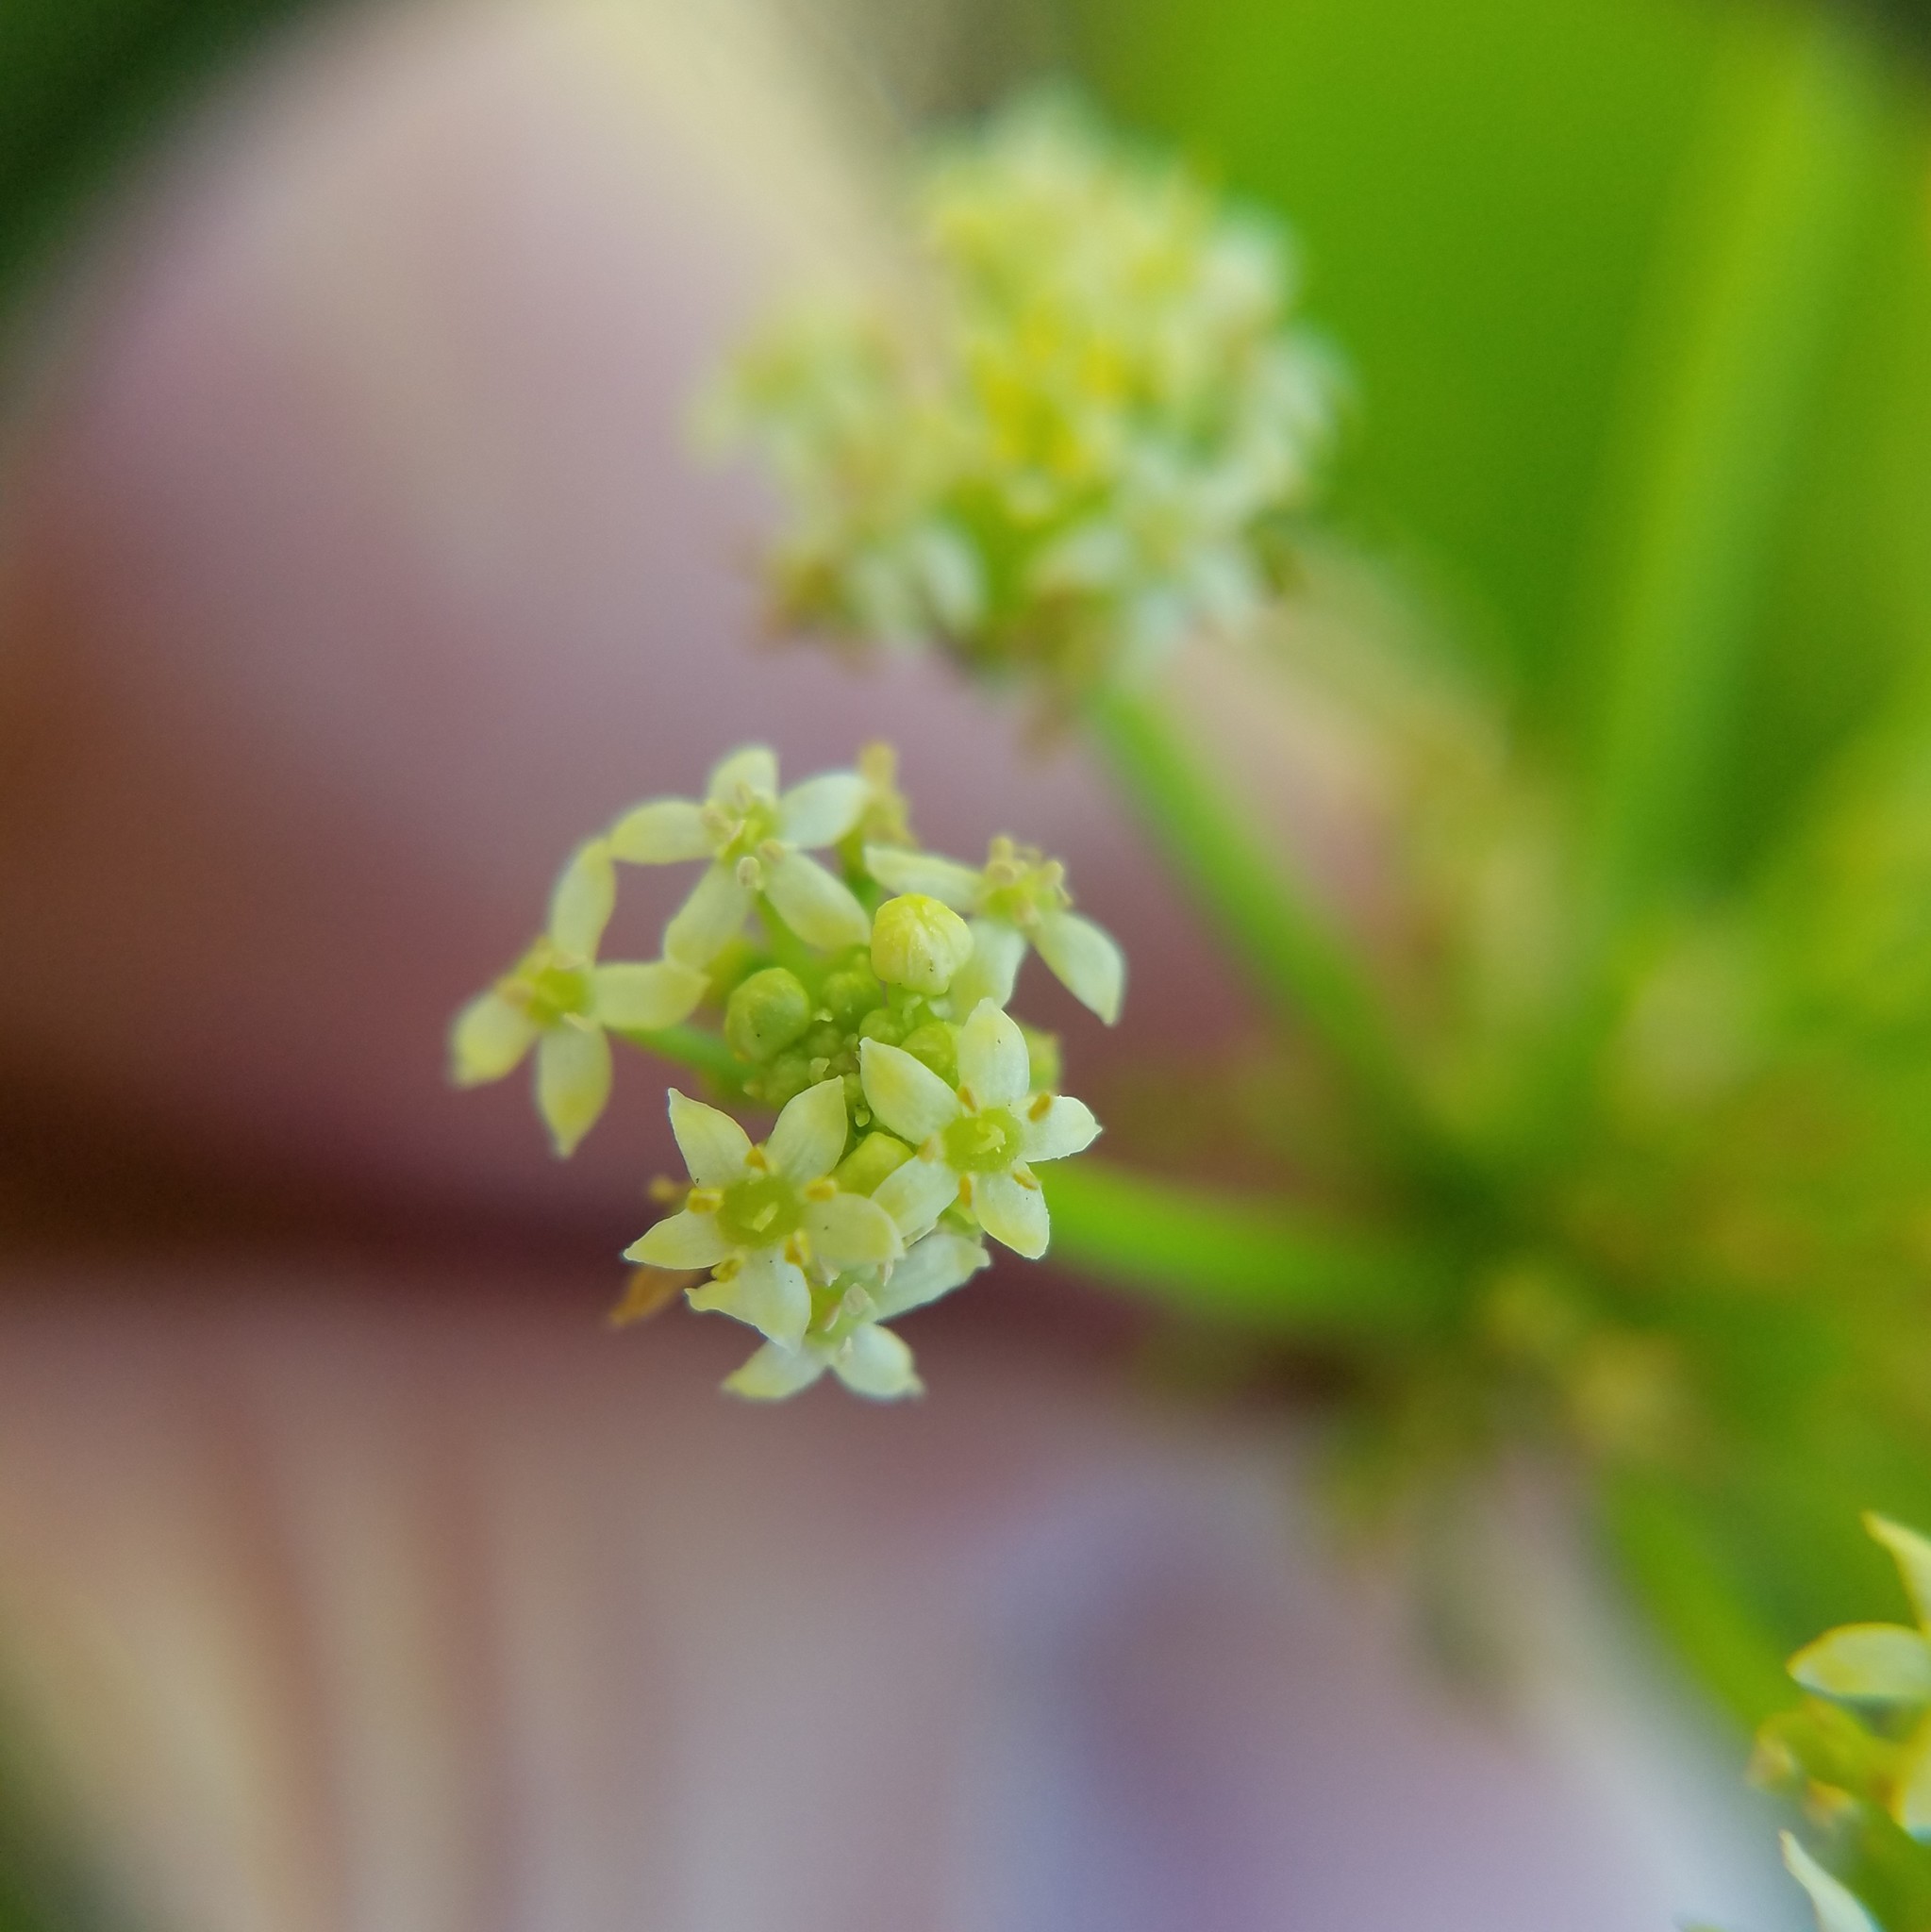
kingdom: Plantae
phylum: Tracheophyta
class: Magnoliopsida
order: Apiales
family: Araliaceae
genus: Hydrocotyle
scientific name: Hydrocotyle bonariensis
